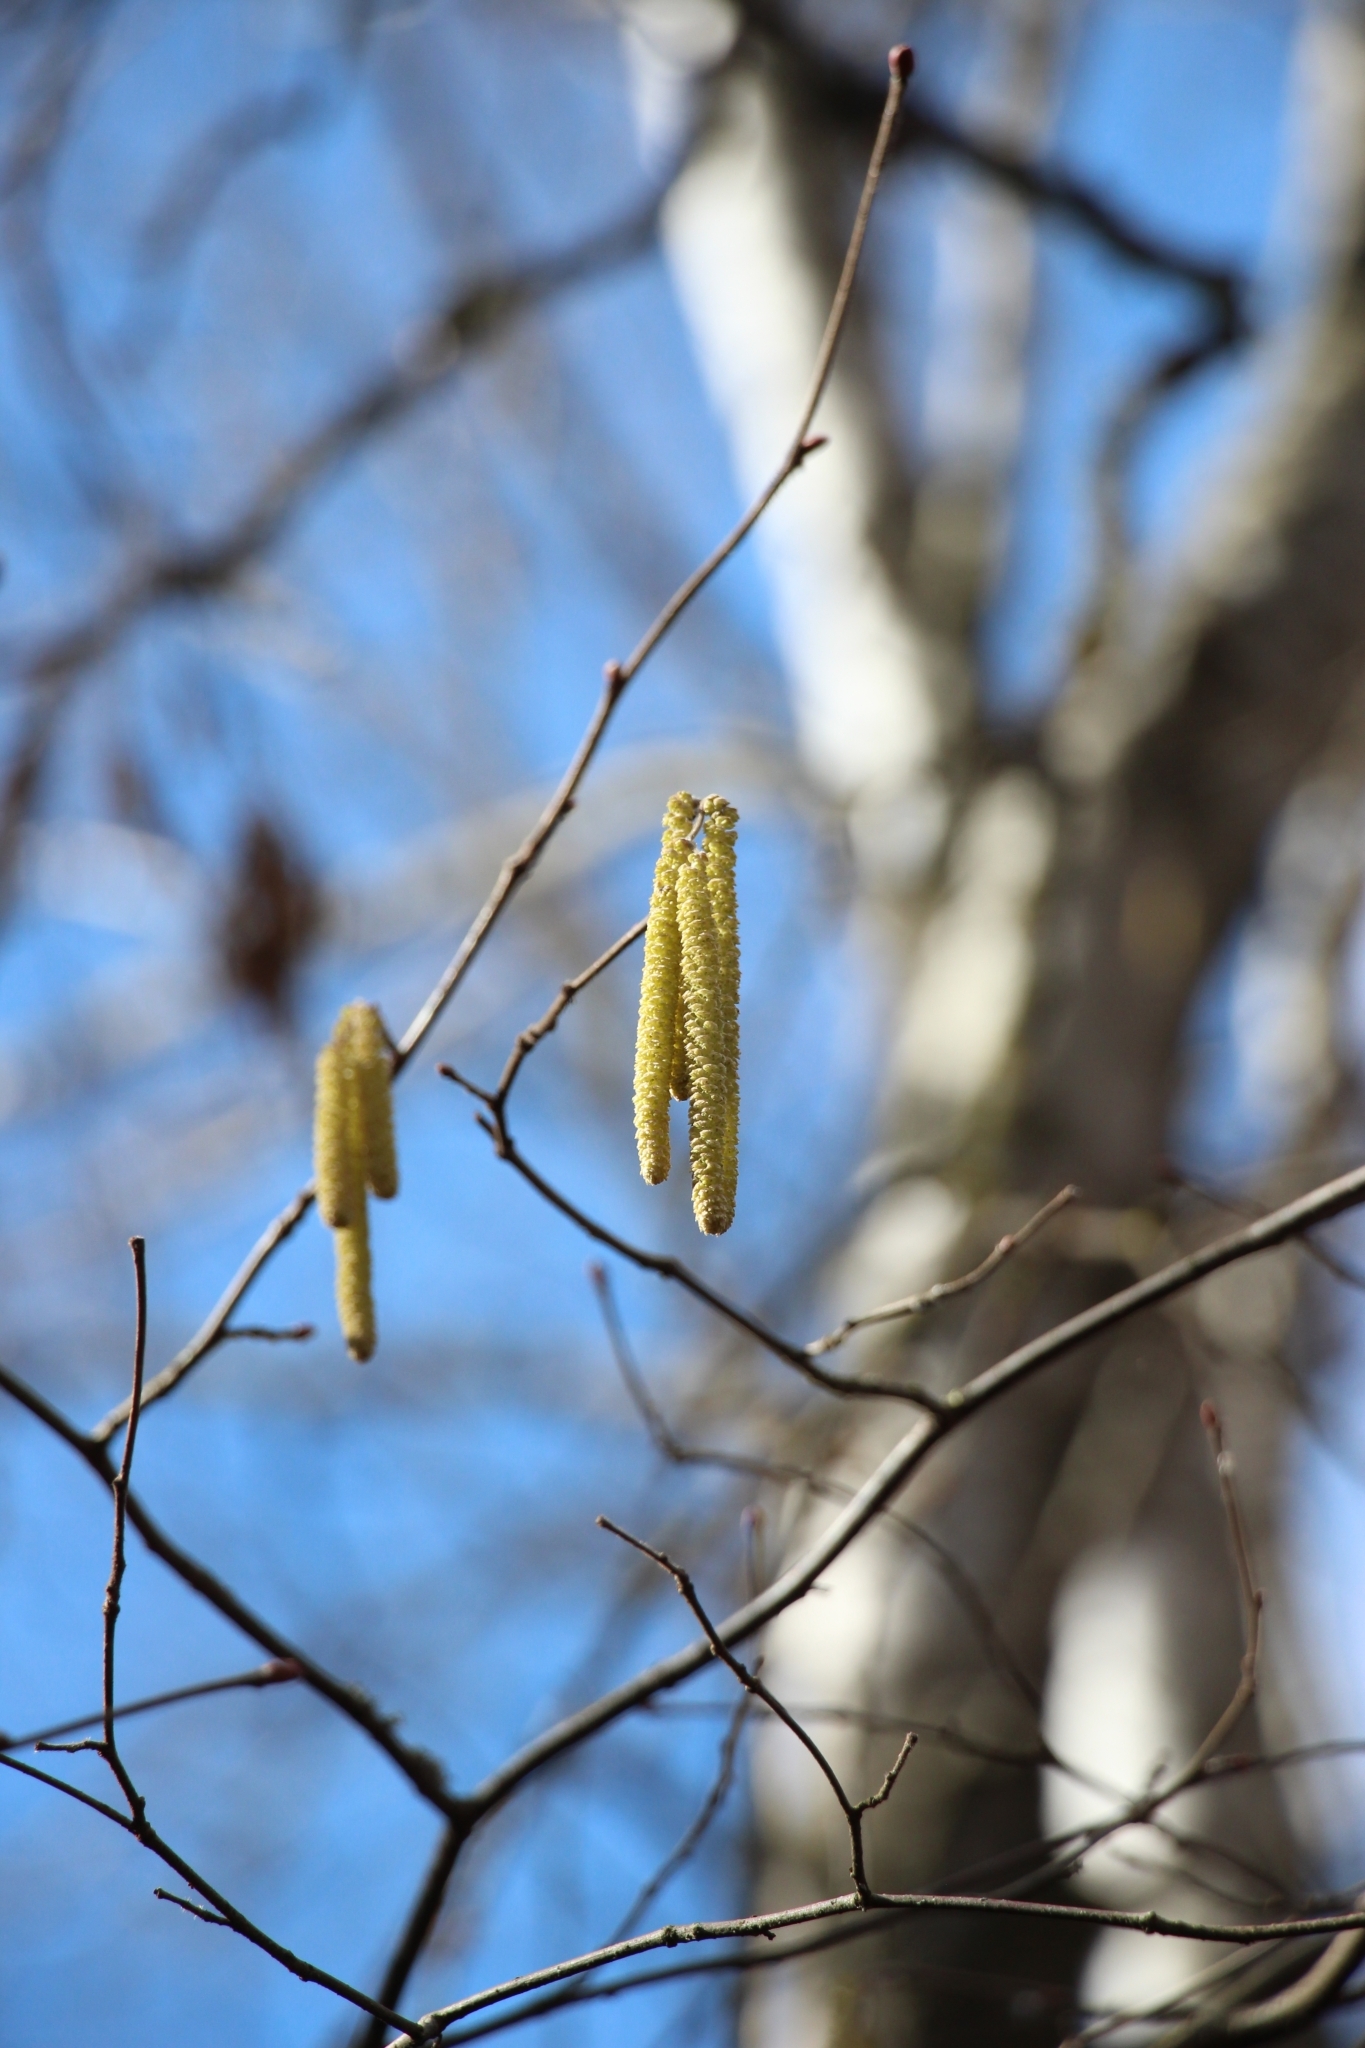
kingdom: Plantae
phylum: Tracheophyta
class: Magnoliopsida
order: Fagales
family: Betulaceae
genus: Corylus
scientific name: Corylus avellana
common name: European hazel
